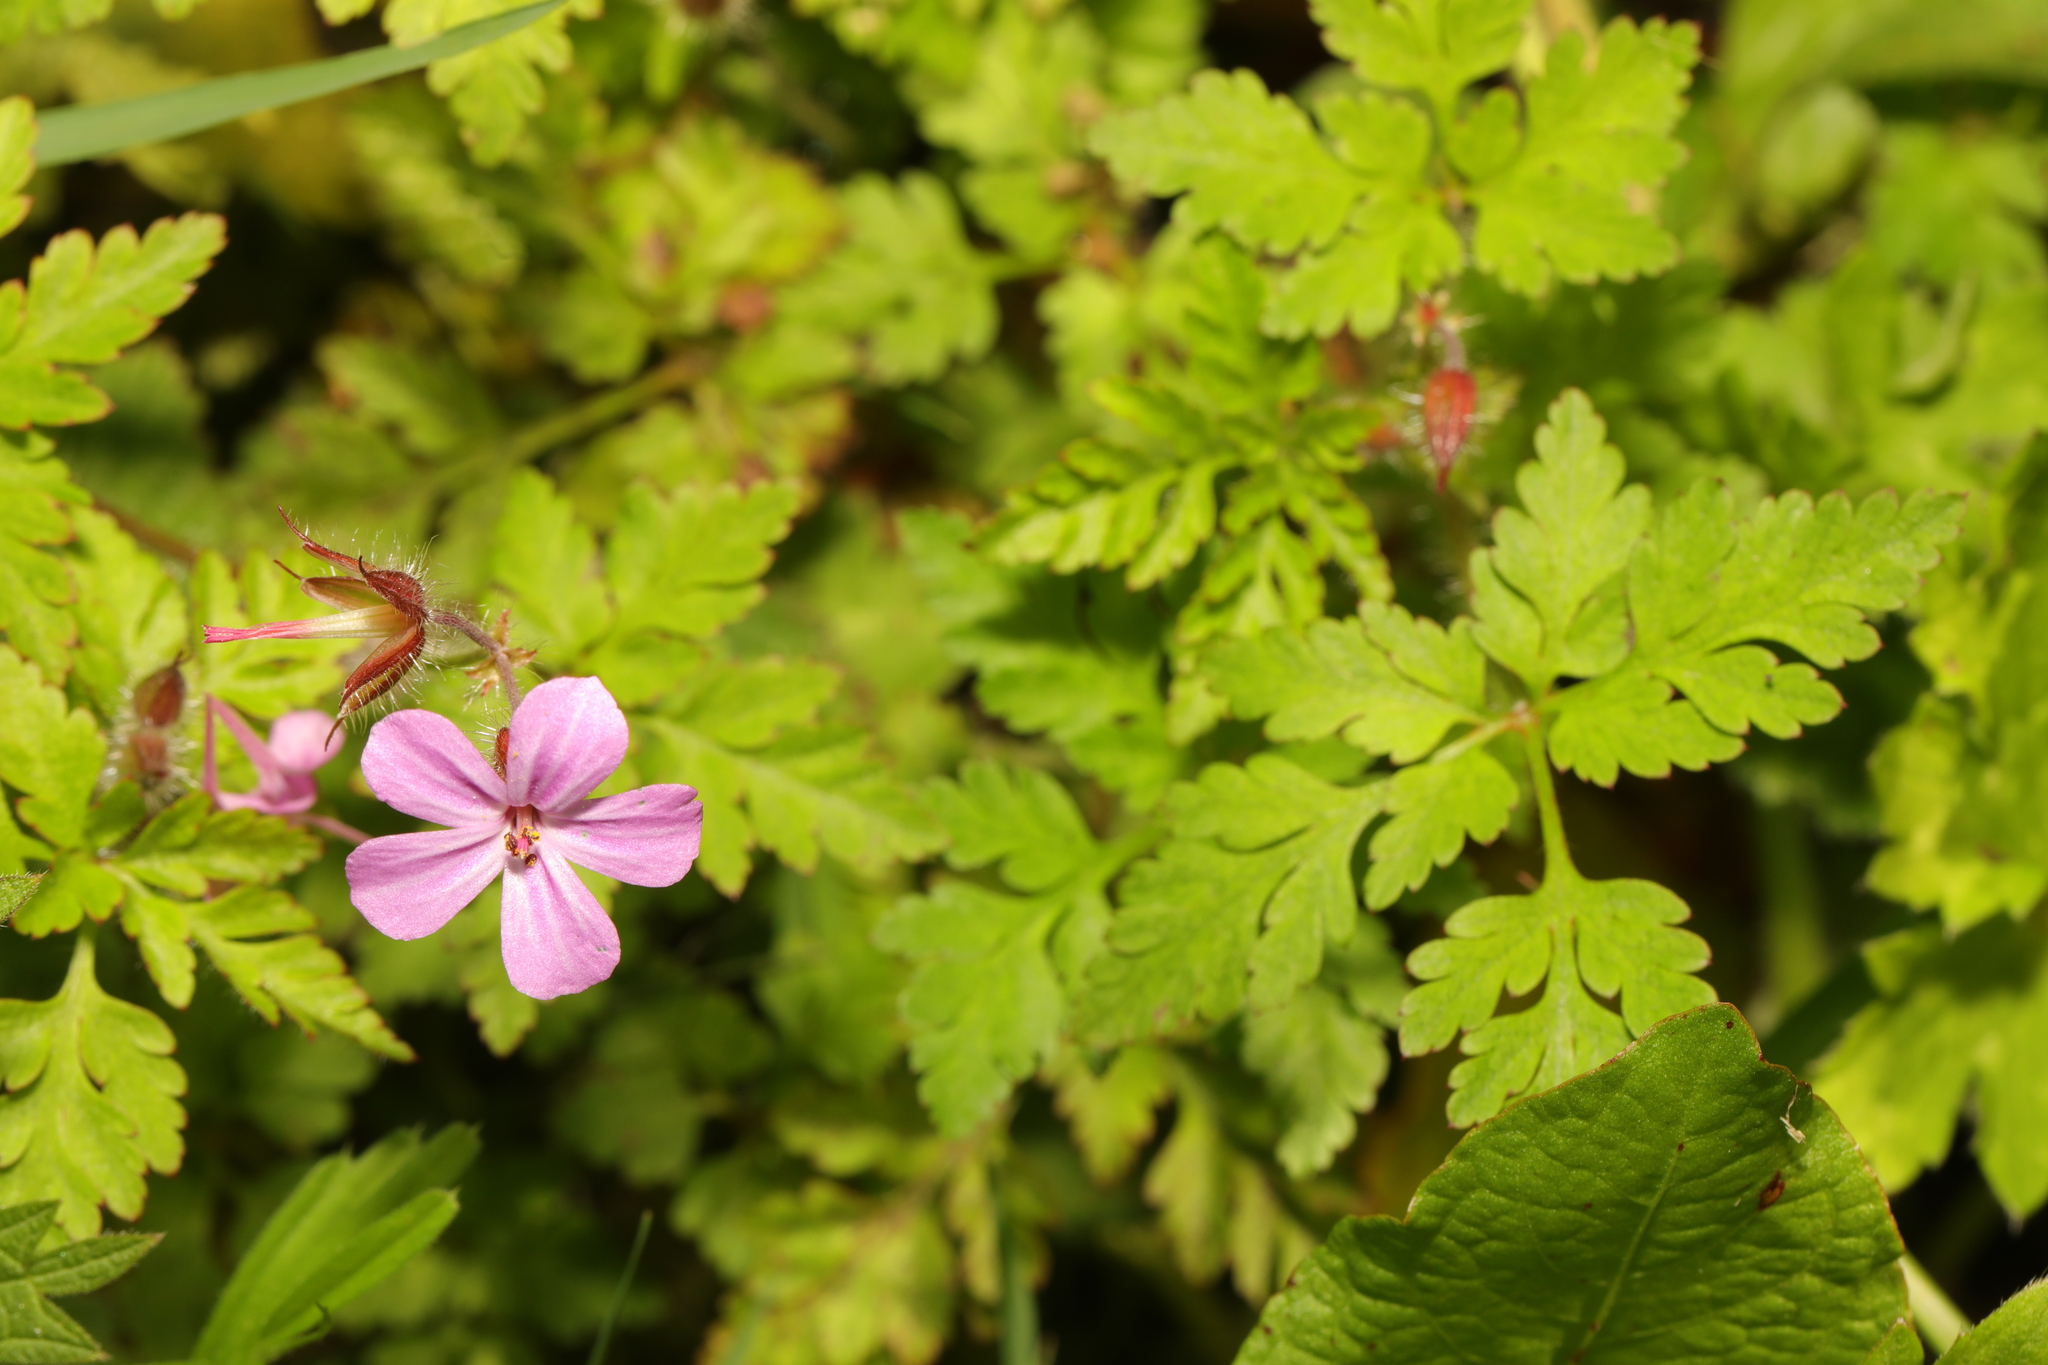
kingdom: Plantae
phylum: Tracheophyta
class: Magnoliopsida
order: Geraniales
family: Geraniaceae
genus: Geranium
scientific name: Geranium robertianum
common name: Herb-robert
